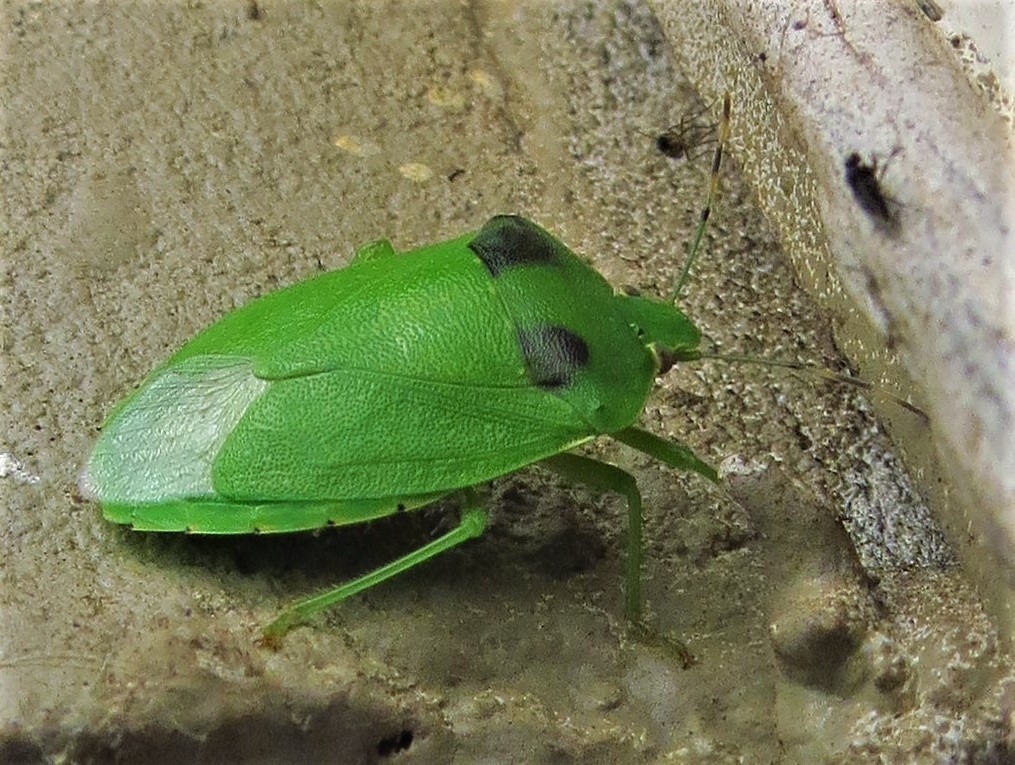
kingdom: Animalia
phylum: Arthropoda
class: Insecta
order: Hemiptera
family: Pentatomidae
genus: Chinavia
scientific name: Chinavia hilaris
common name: Green stink bug
